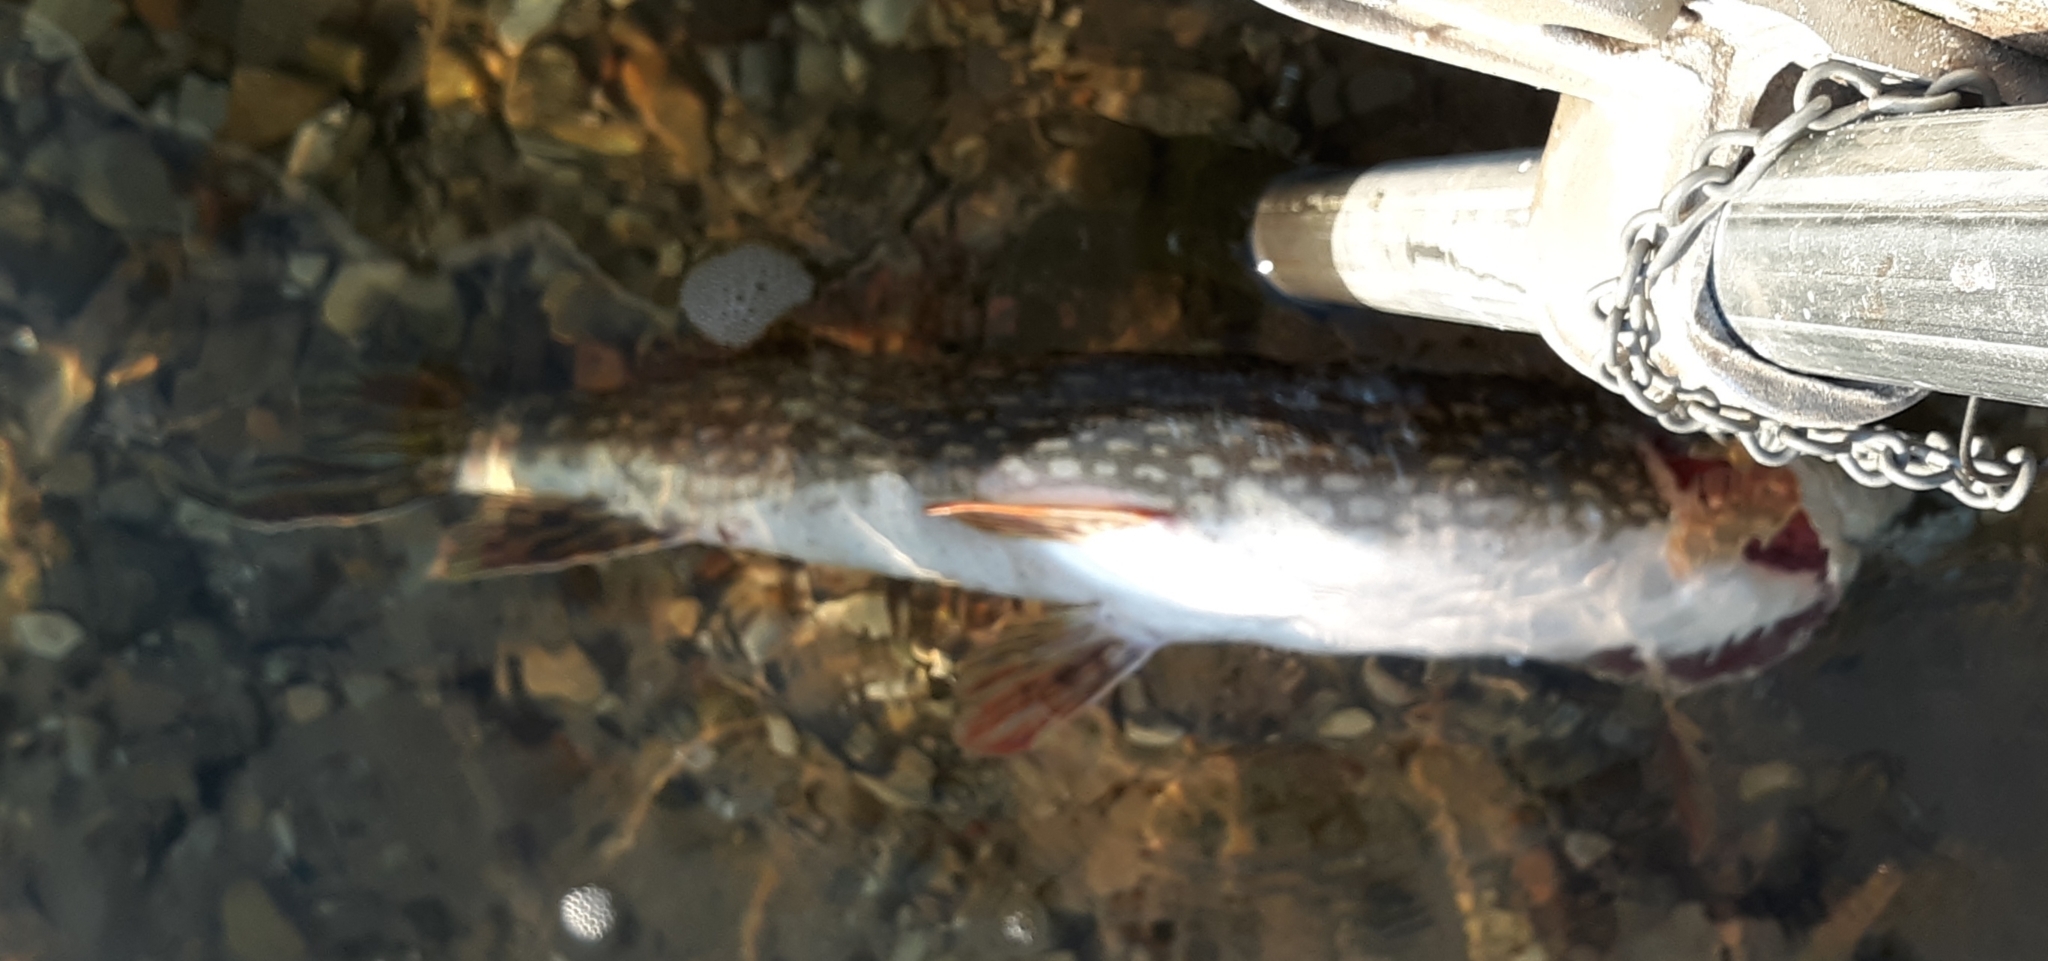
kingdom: Animalia
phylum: Chordata
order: Esociformes
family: Esocidae
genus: Esox
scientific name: Esox lucius
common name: Northern pike
